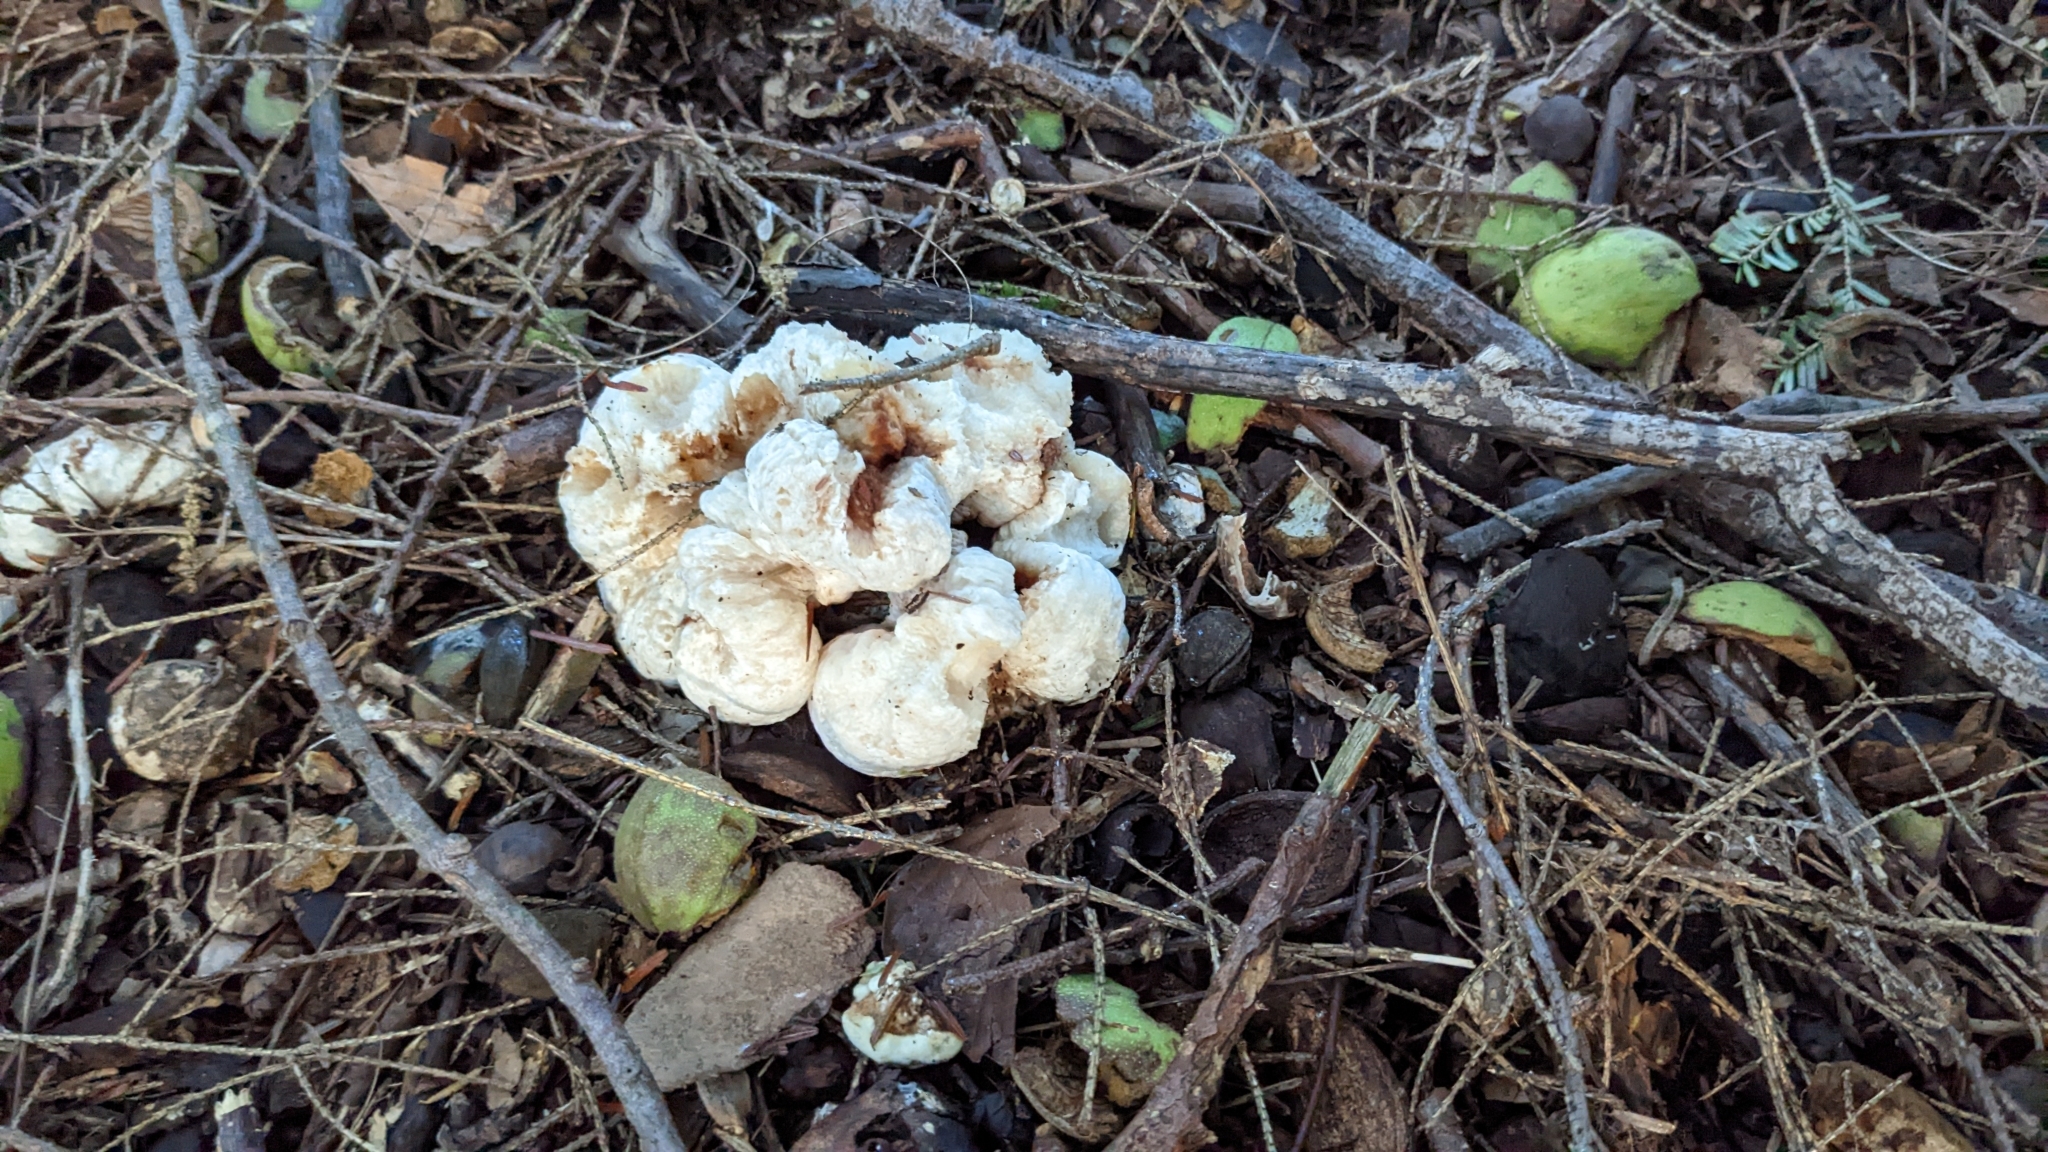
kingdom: Fungi
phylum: Basidiomycota
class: Agaricomycetes
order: Agaricales
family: Entolomataceae
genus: Entoloma
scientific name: Entoloma abortivum
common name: Aborted entoloma
